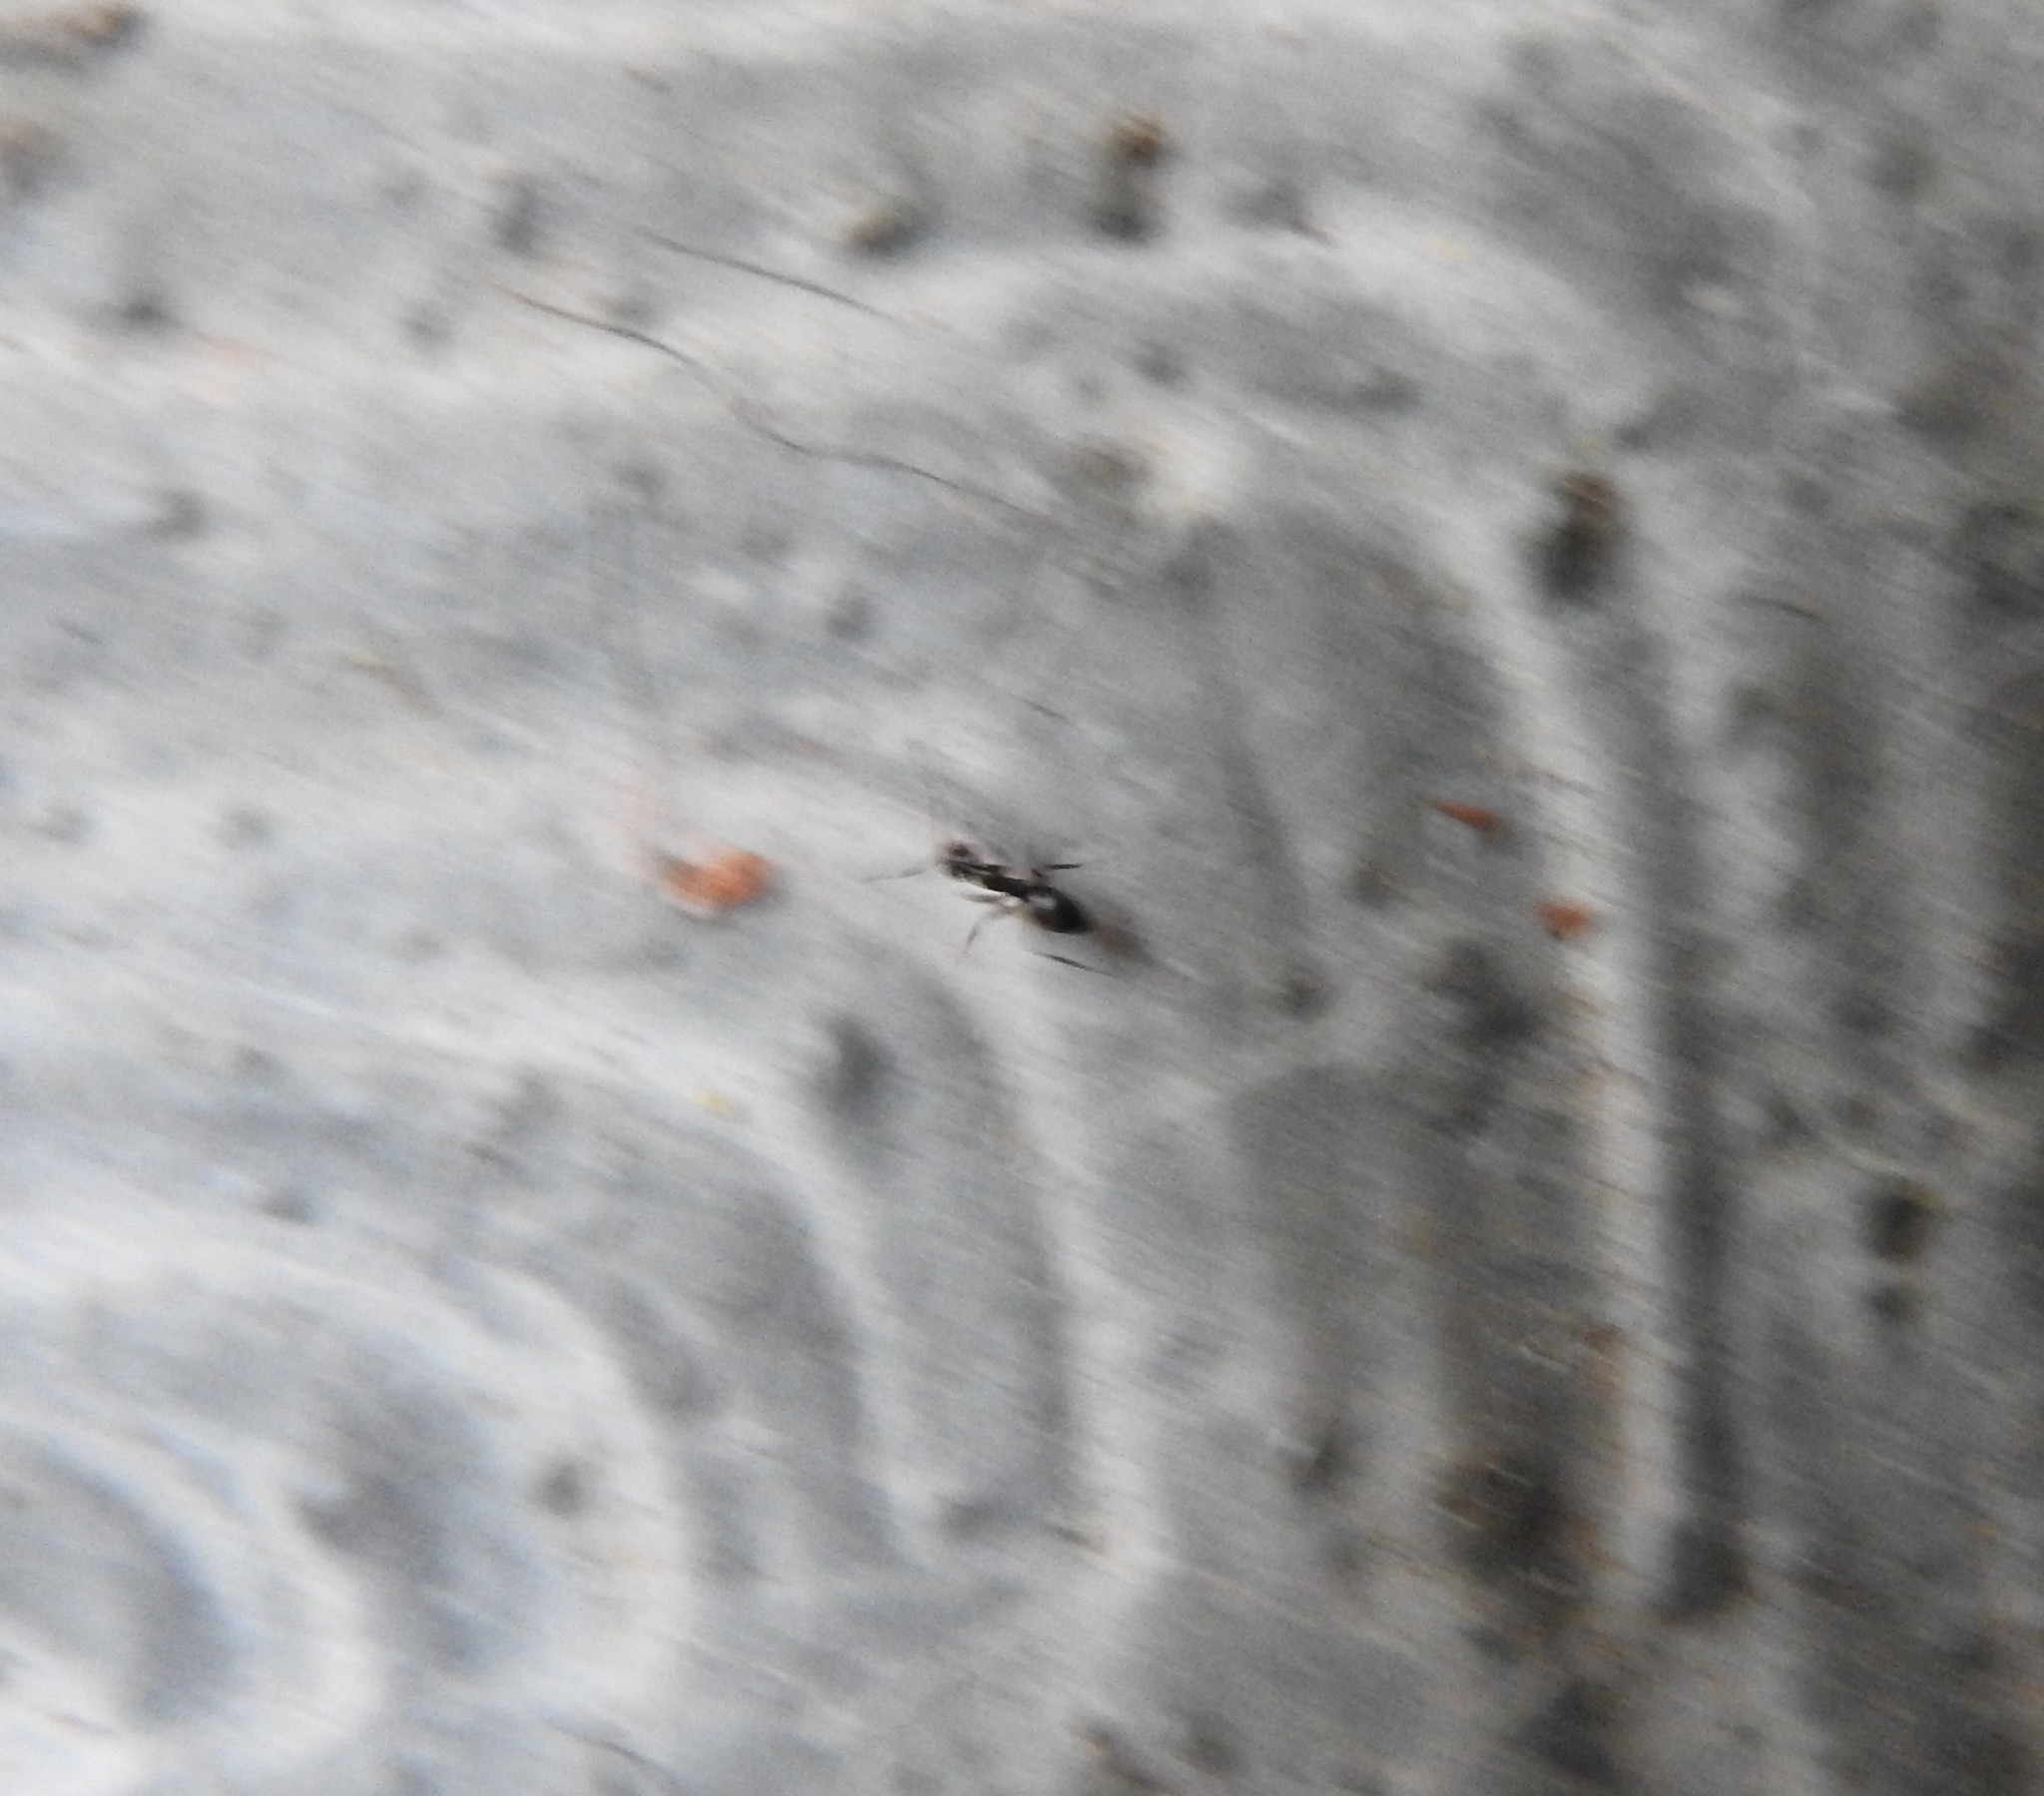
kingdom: Animalia
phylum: Arthropoda
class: Insecta
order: Hymenoptera
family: Formicidae
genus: Paratrechina
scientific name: Paratrechina longicornis
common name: Longhorned crazy ant
